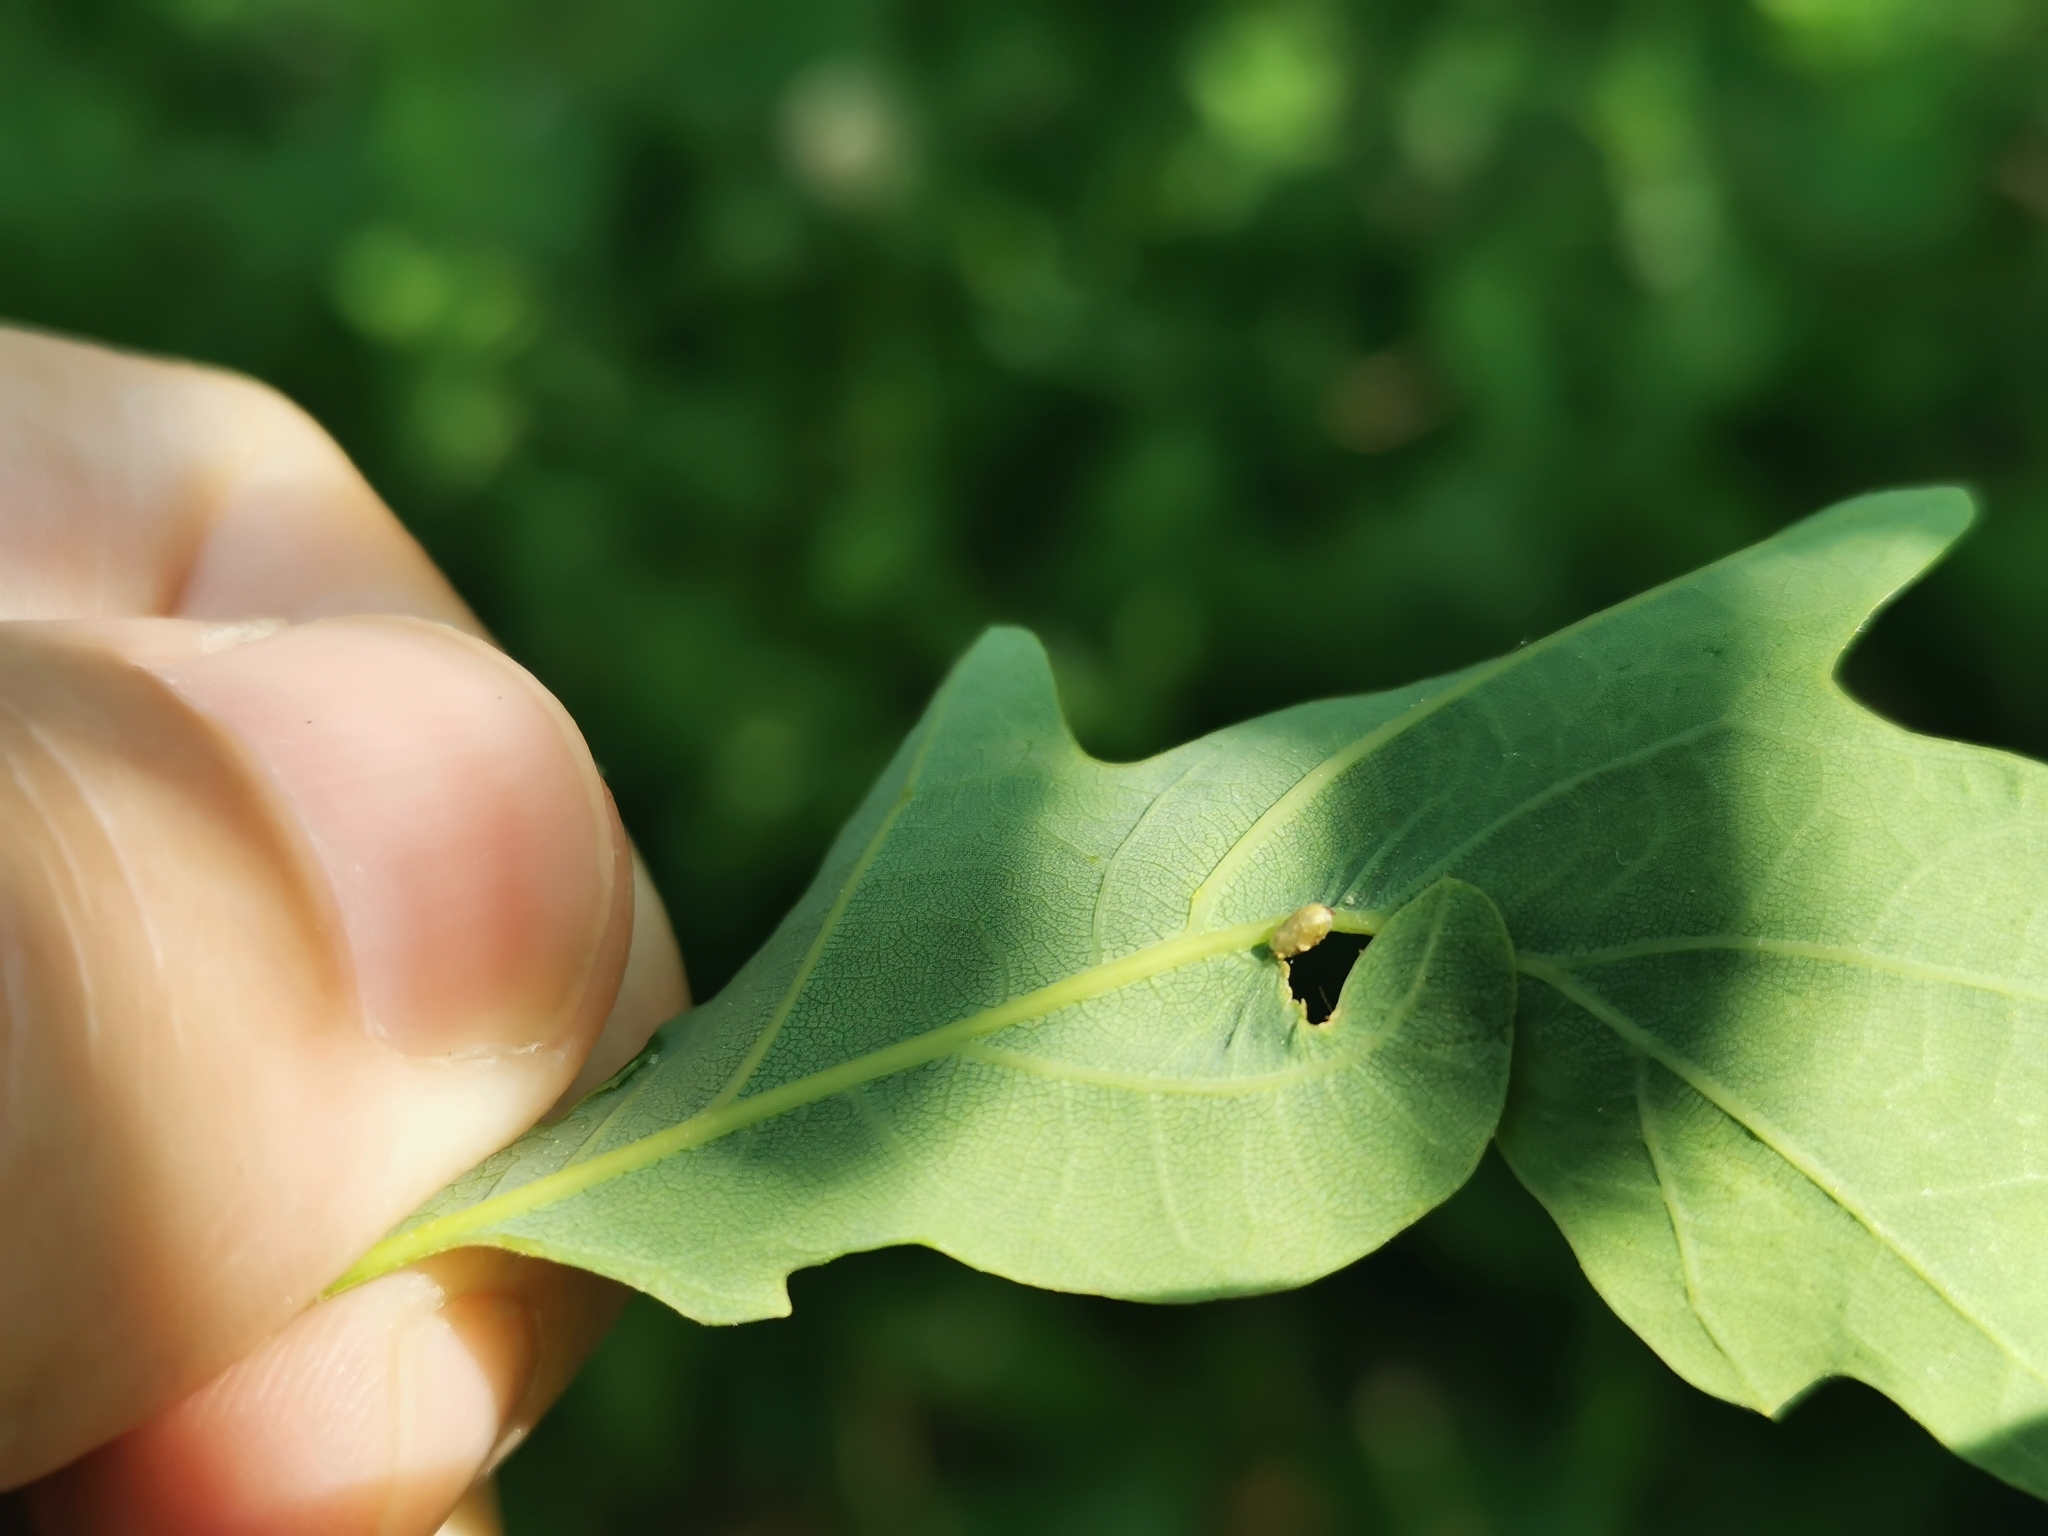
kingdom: Animalia
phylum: Arthropoda
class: Insecta
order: Hymenoptera
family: Cynipidae
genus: Neuroterus
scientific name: Neuroterus albipes
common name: Smooth spangle gall
